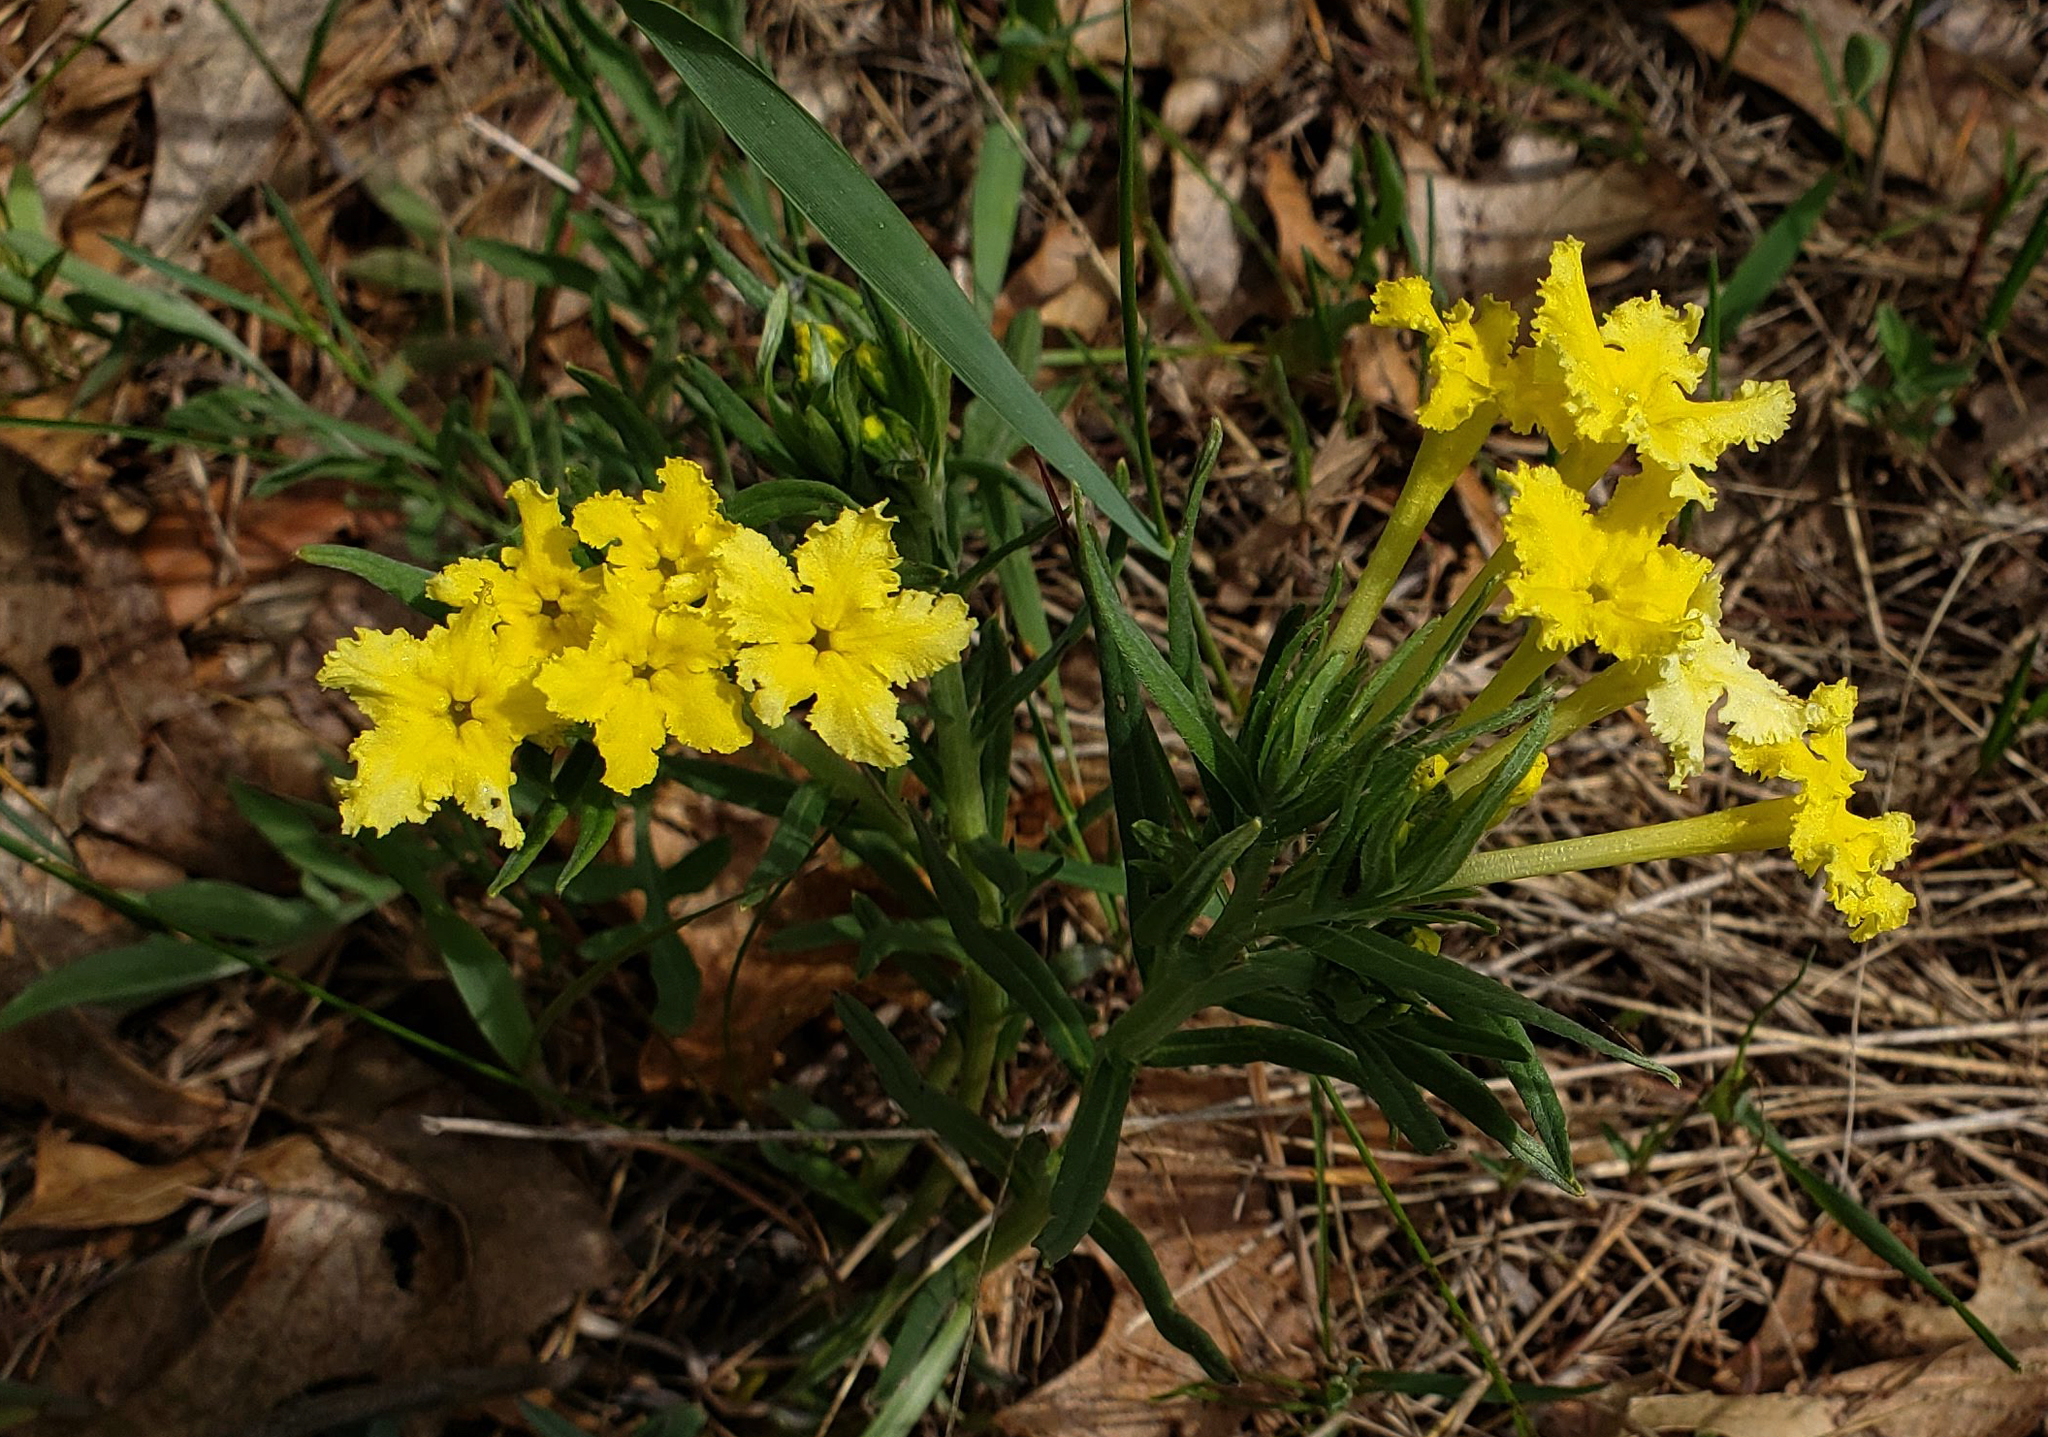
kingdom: Plantae
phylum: Tracheophyta
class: Magnoliopsida
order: Boraginales
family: Boraginaceae
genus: Lithospermum
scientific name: Lithospermum incisum
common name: Fringed gromwell
